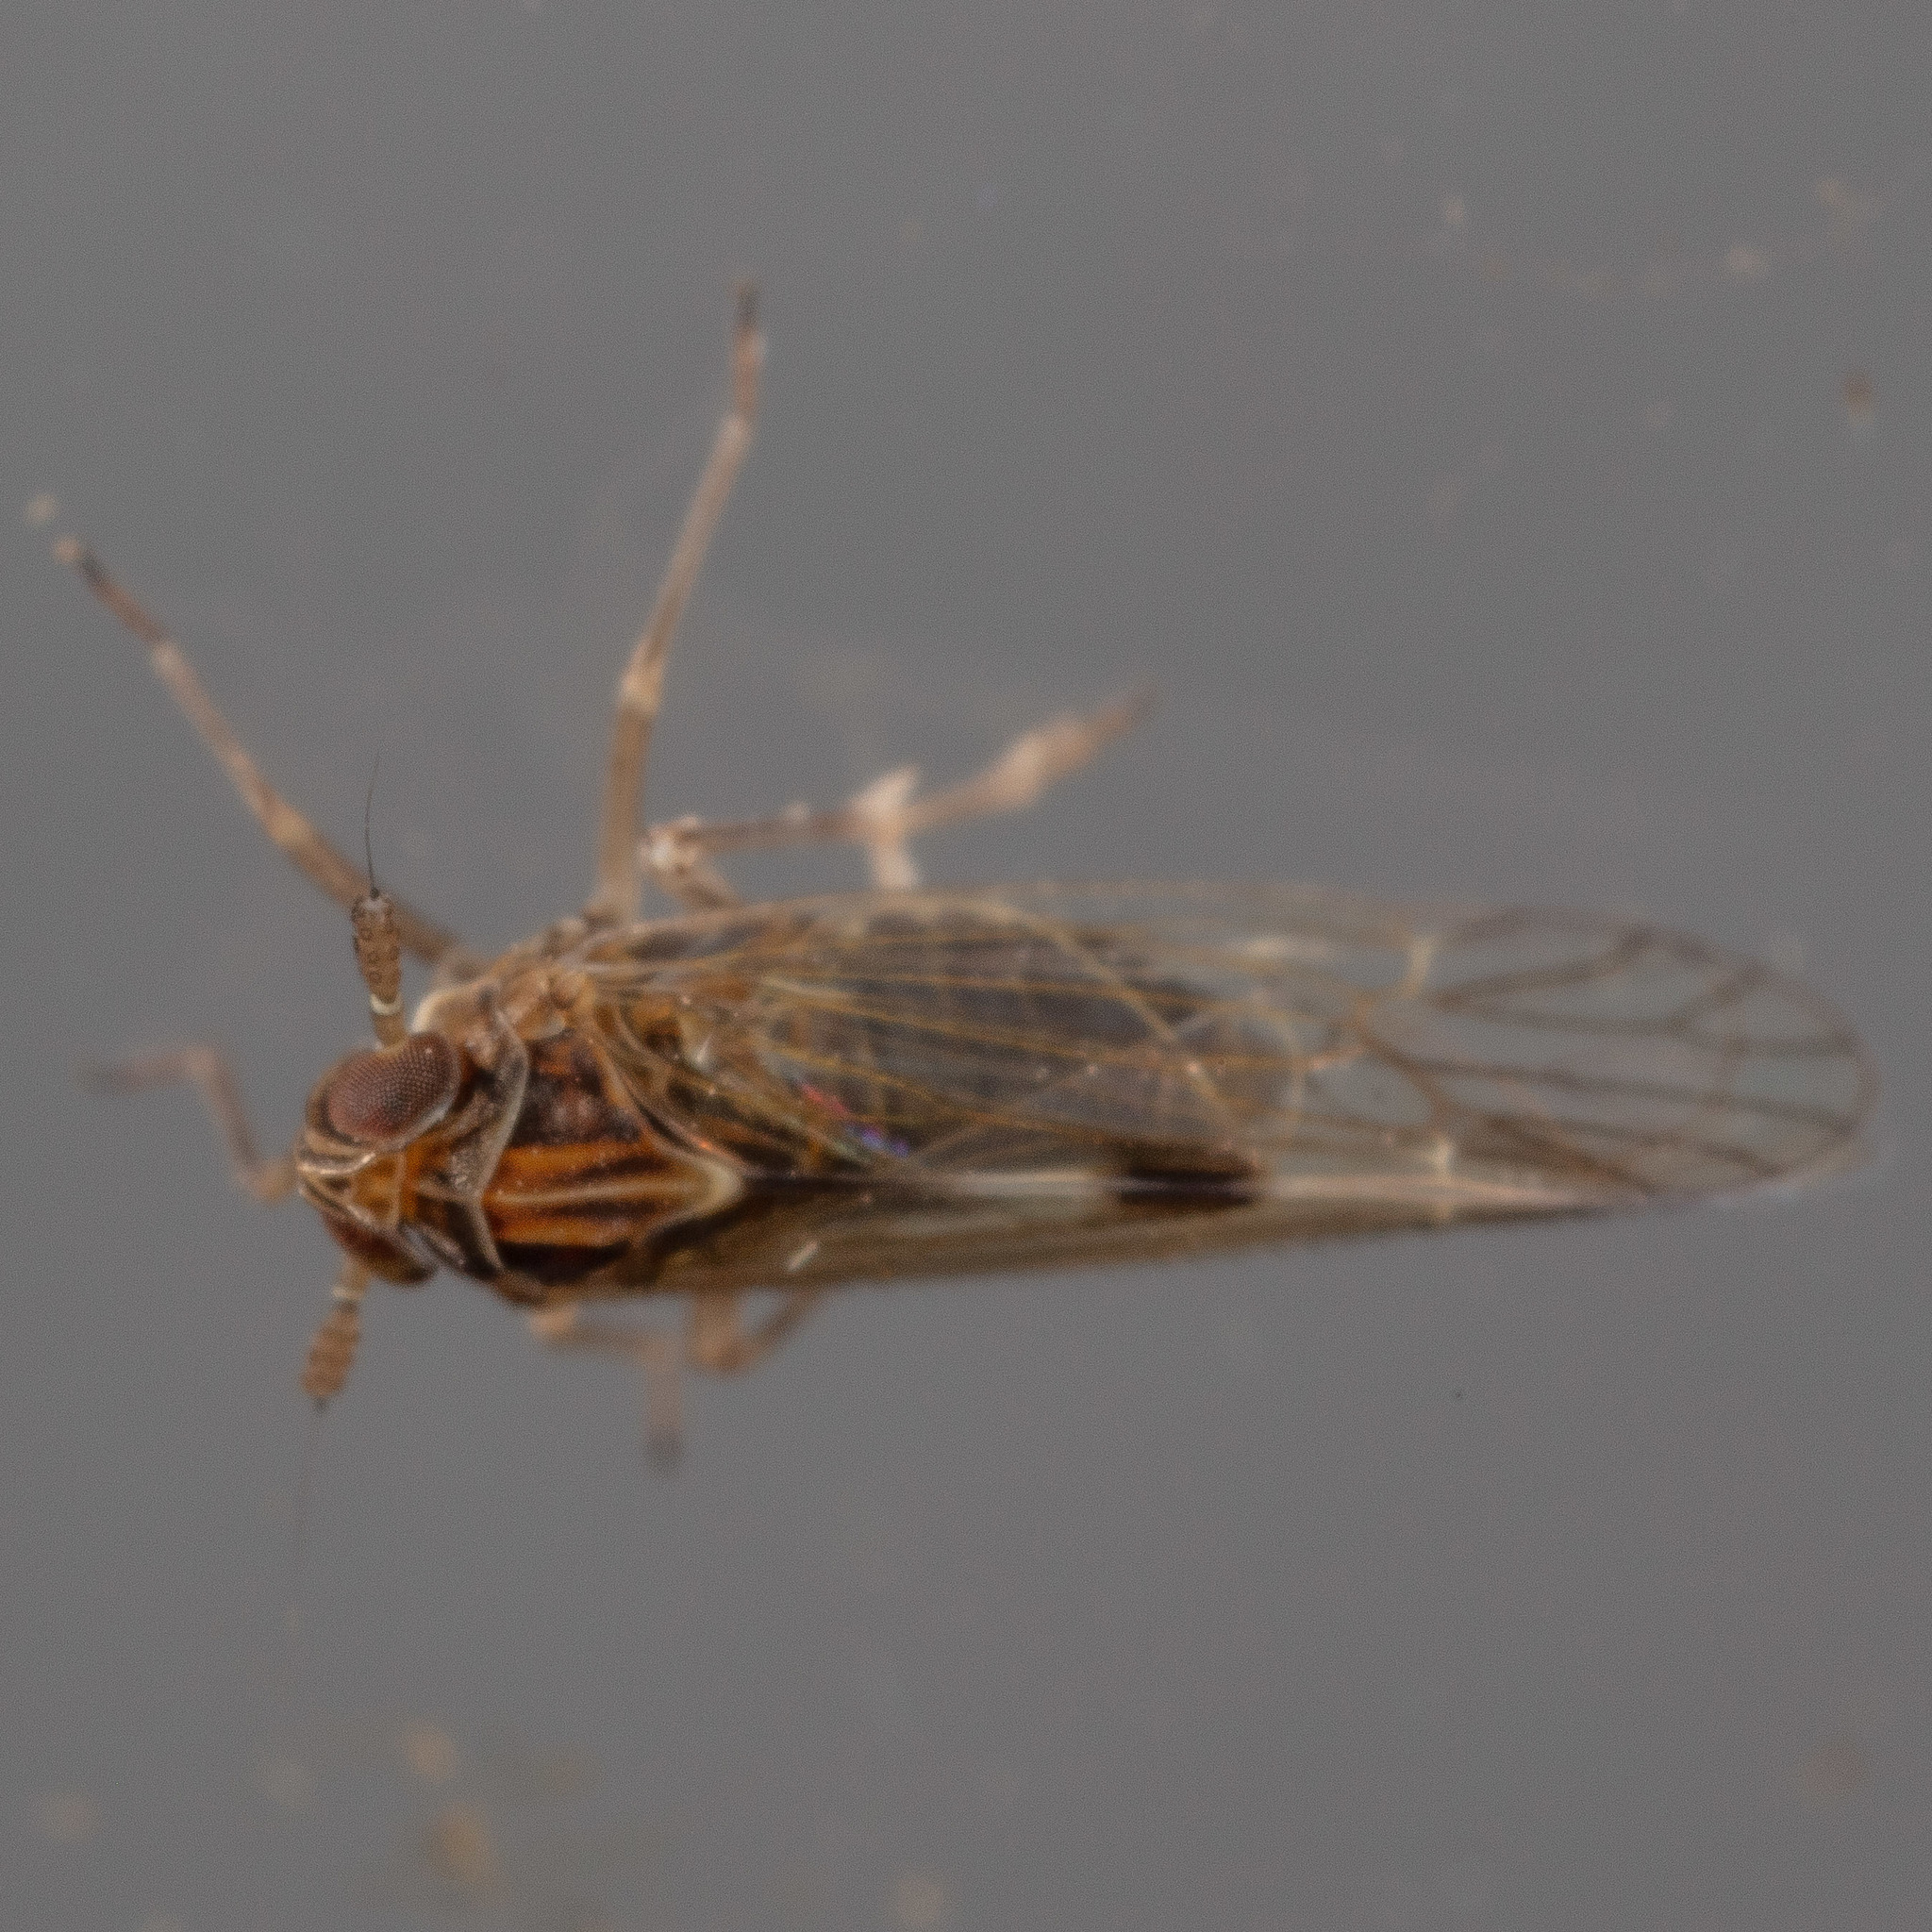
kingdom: Animalia
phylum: Arthropoda
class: Insecta
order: Hemiptera
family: Delphacidae
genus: Chionomus
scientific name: Chionomus
